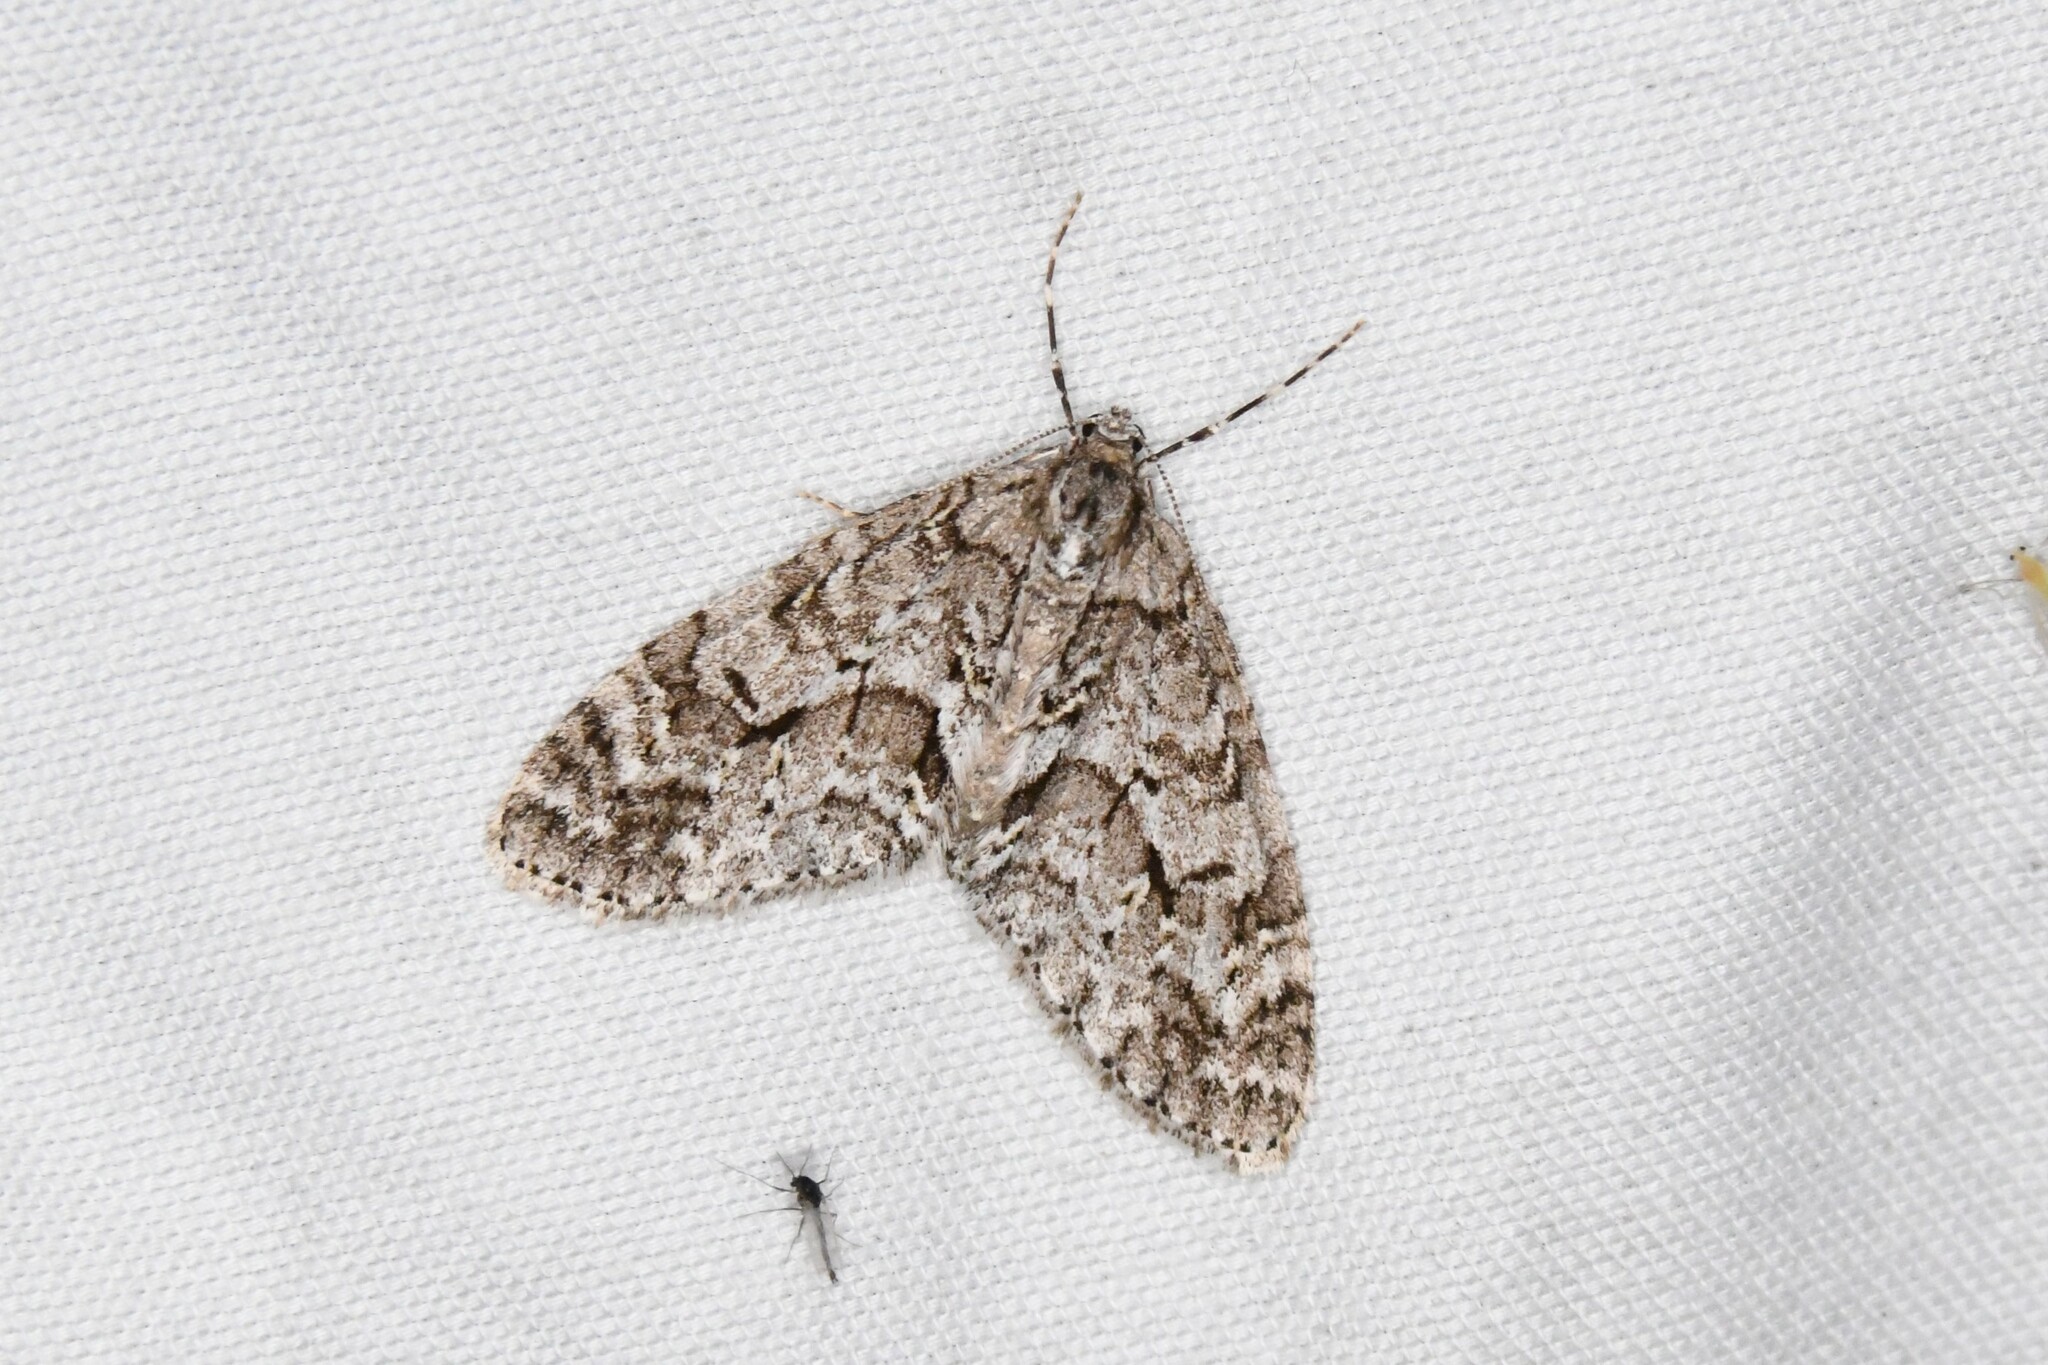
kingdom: Animalia
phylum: Arthropoda
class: Insecta
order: Lepidoptera
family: Geometridae
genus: Cladara
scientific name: Cladara limitaria
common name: Mottled gray carpet
